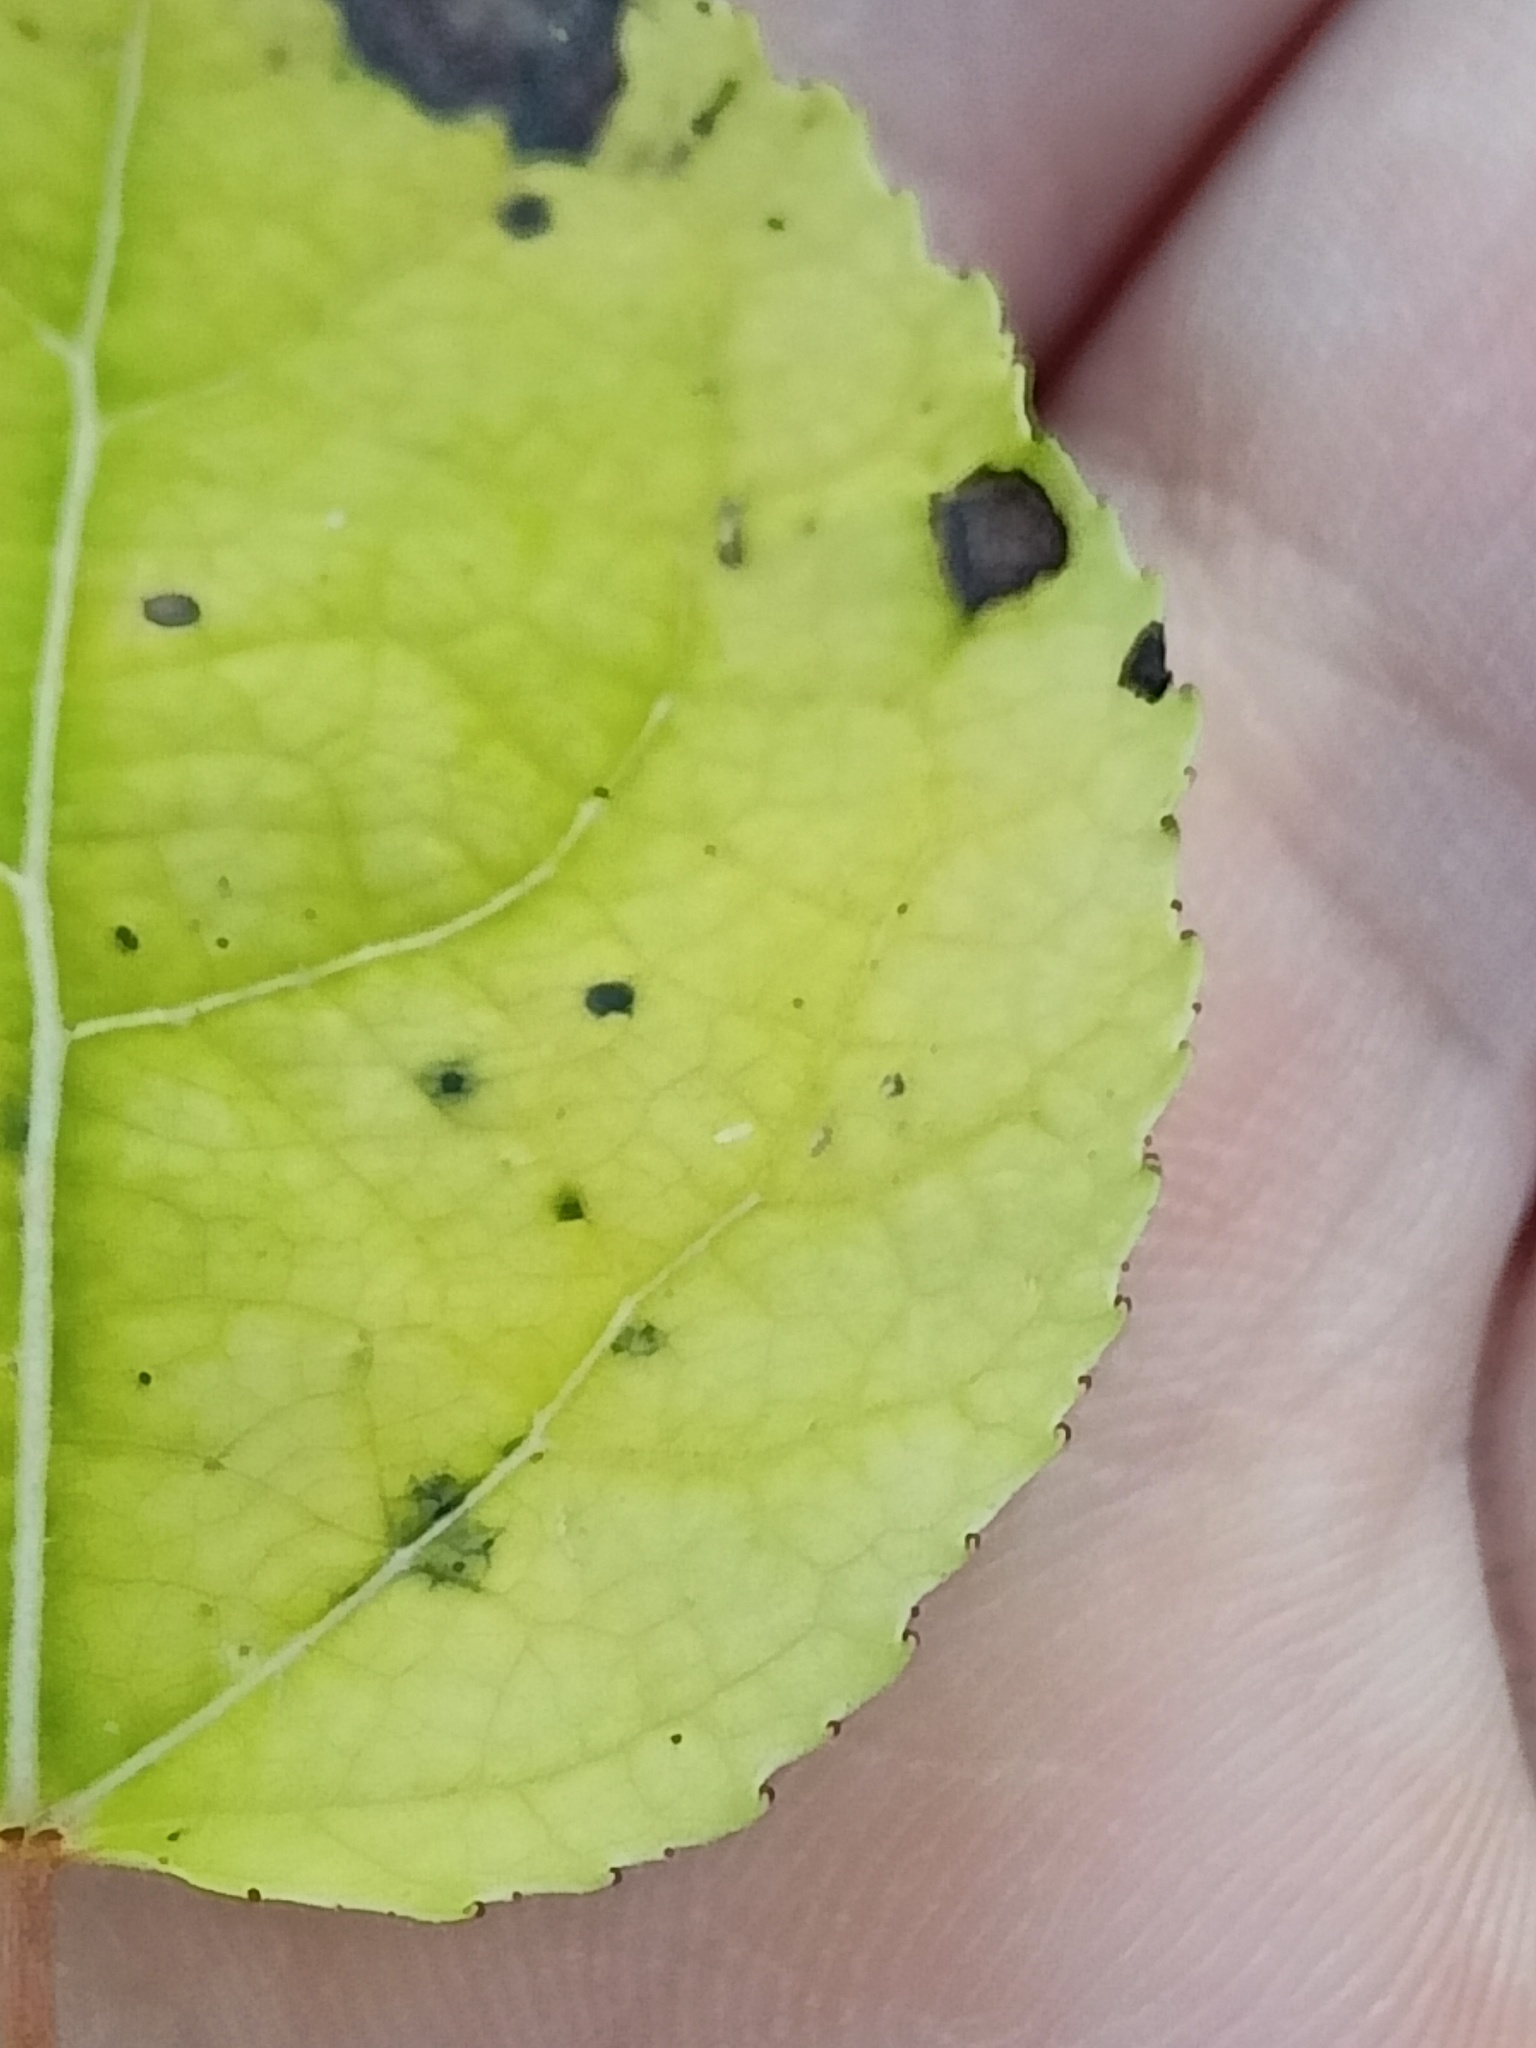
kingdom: Plantae
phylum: Tracheophyta
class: Magnoliopsida
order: Malpighiales
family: Salicaceae
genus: Populus
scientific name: Populus tremula
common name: European aspen
